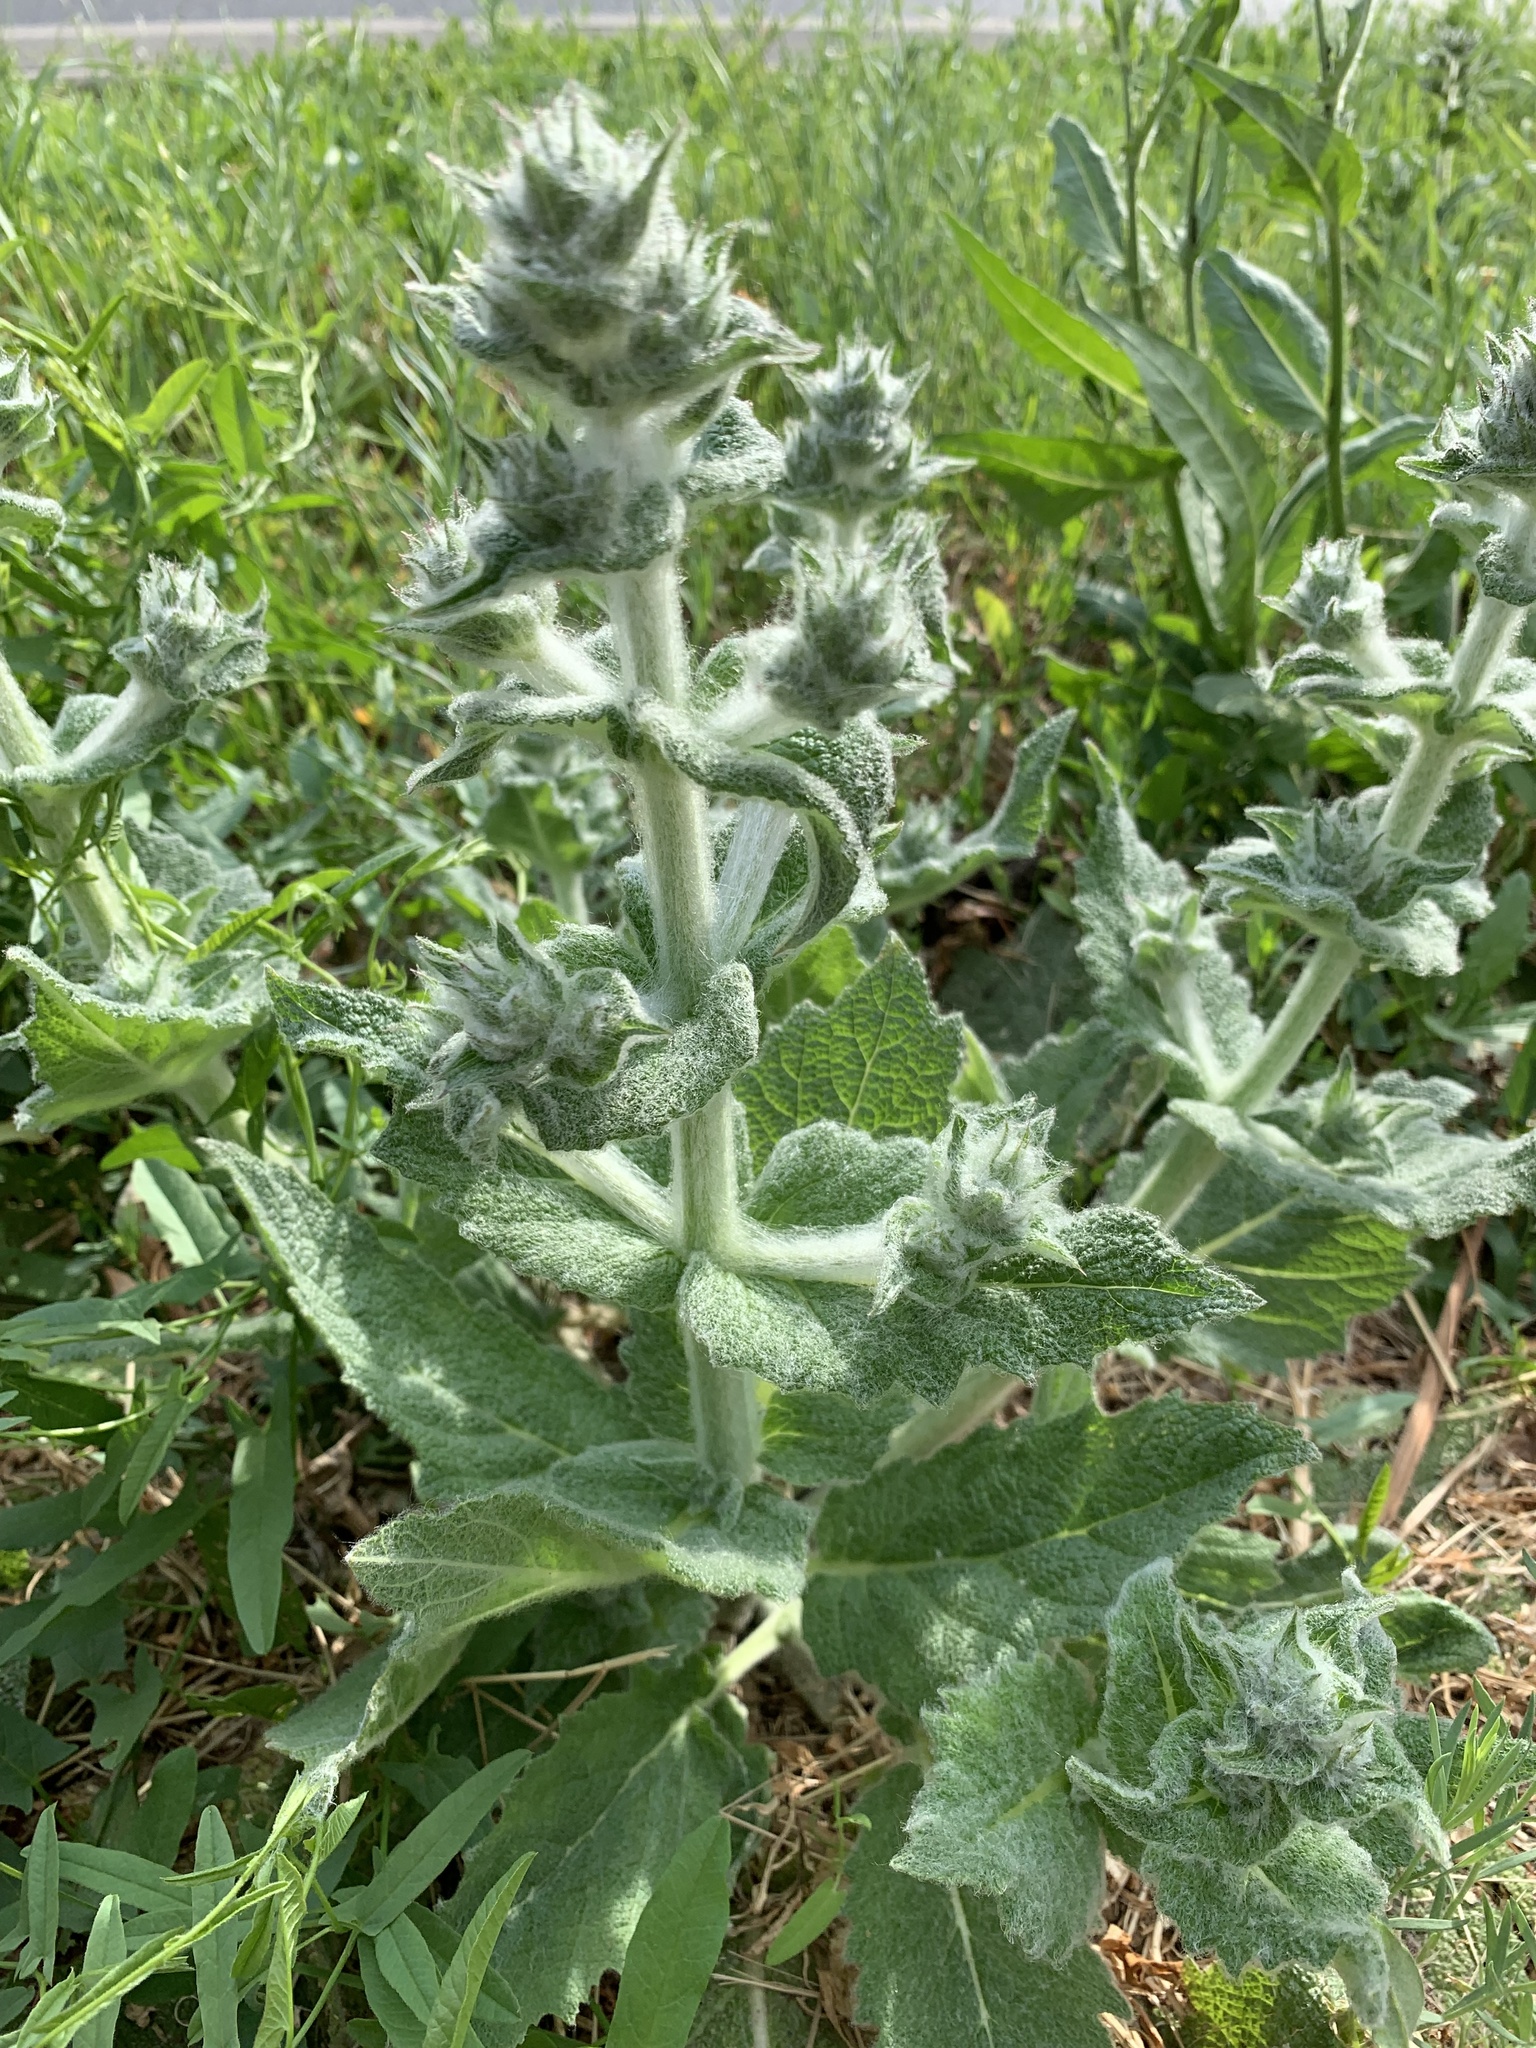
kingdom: Plantae
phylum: Tracheophyta
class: Magnoliopsida
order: Lamiales
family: Lamiaceae
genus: Salvia
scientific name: Salvia aethiopis
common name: Mediterranean sage
